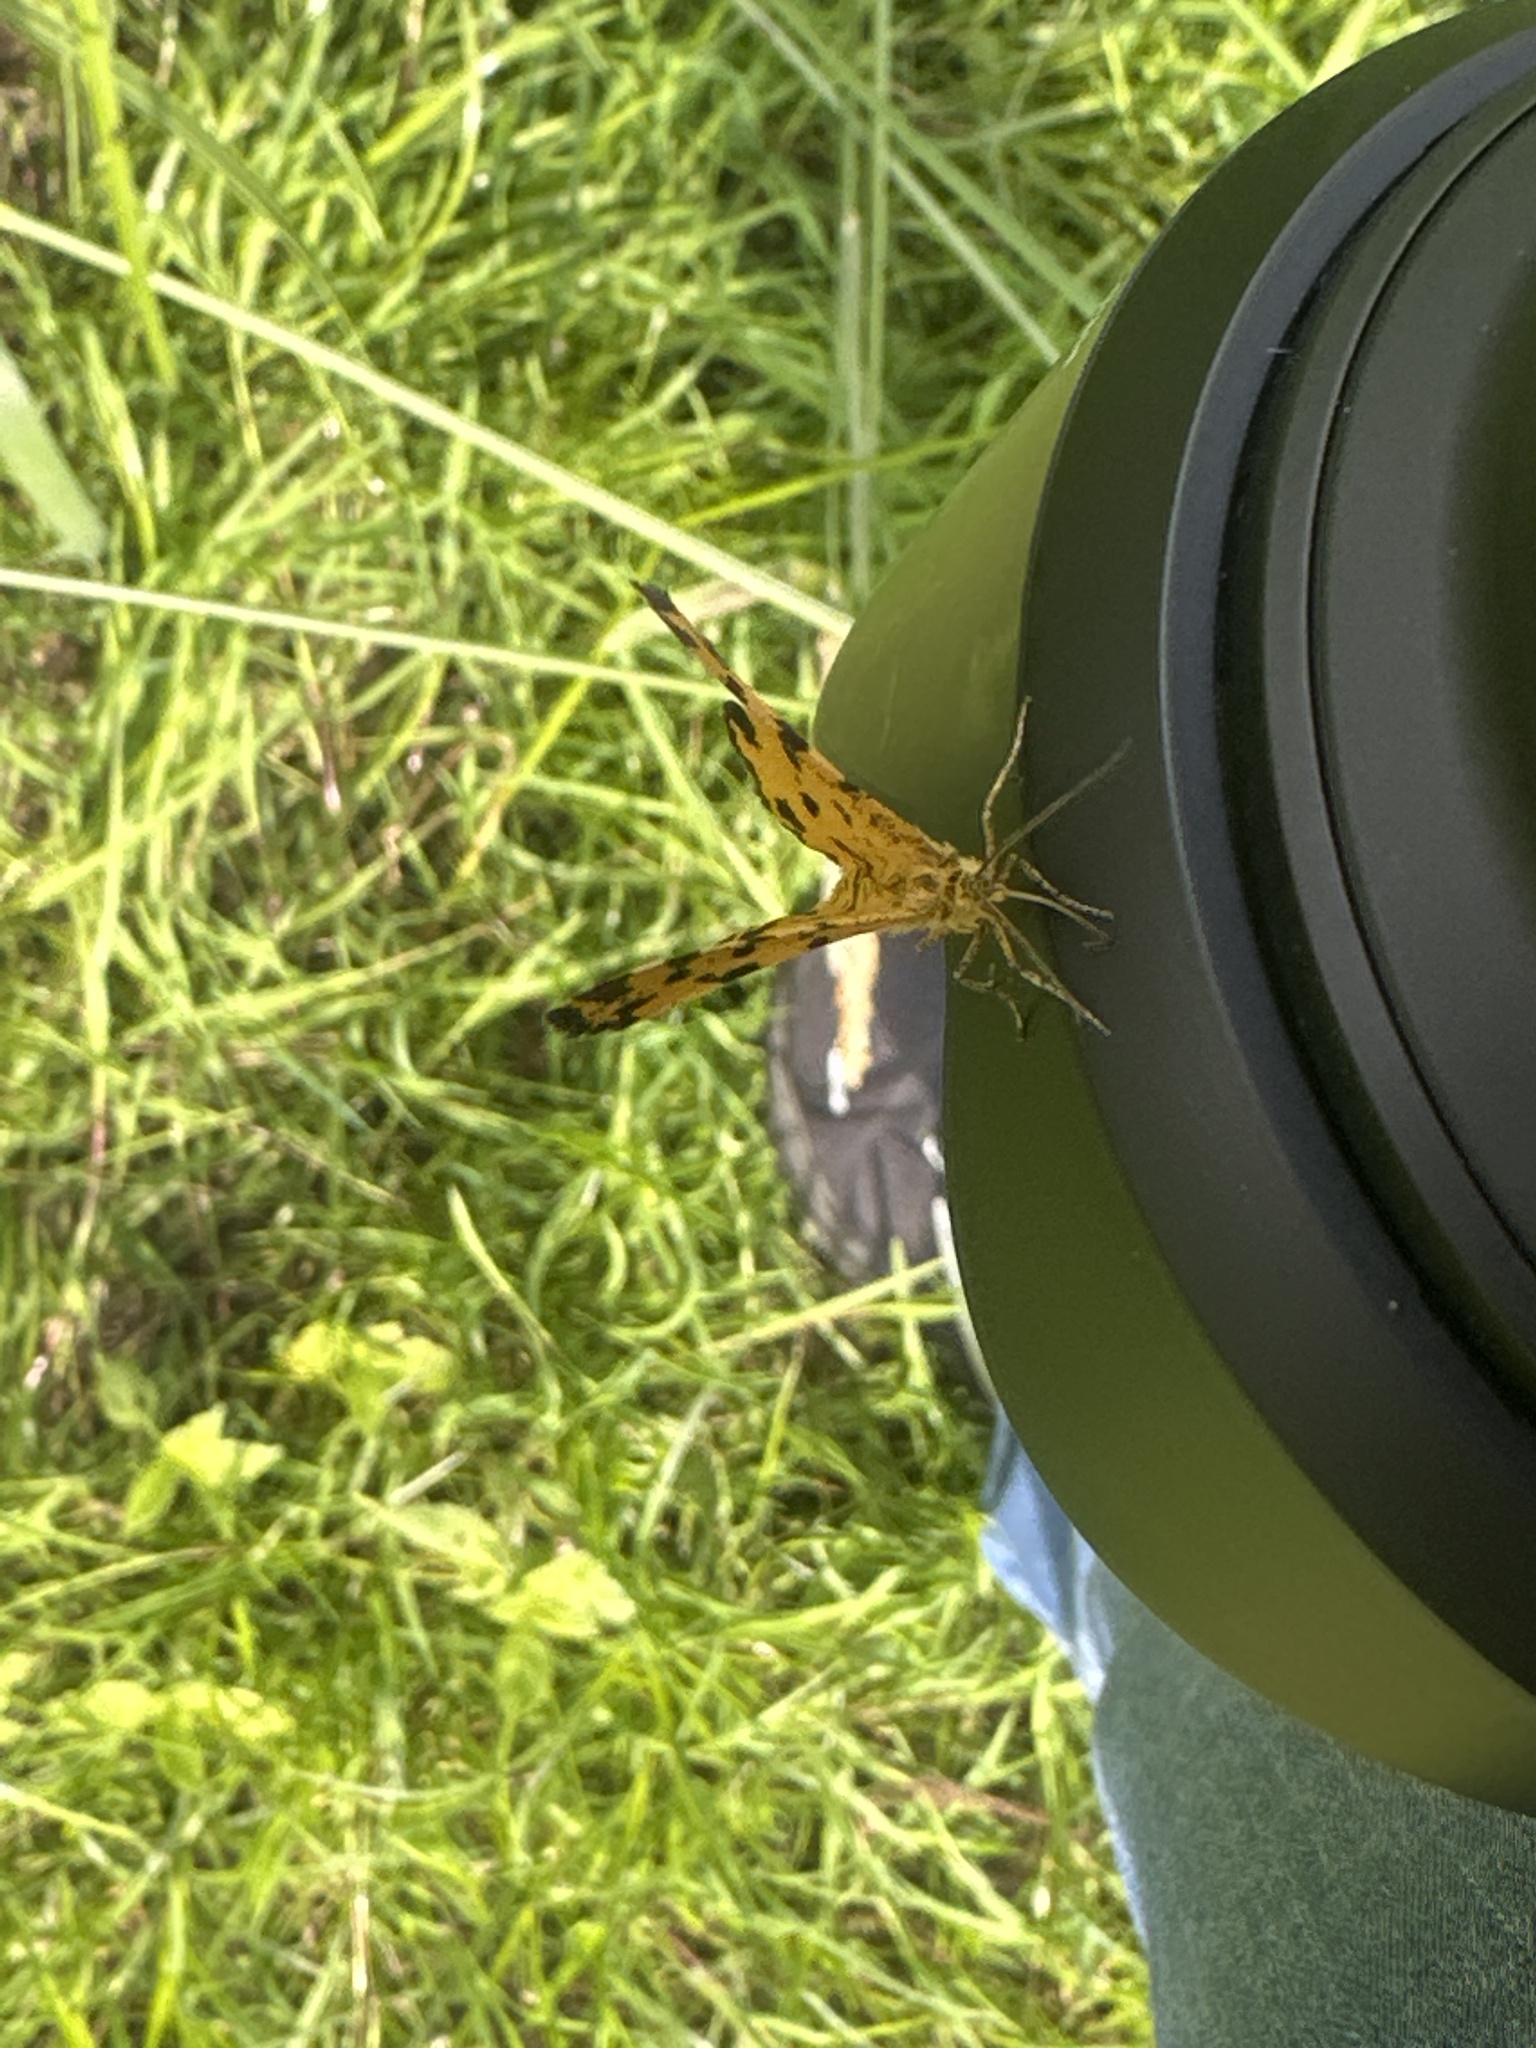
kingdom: Animalia
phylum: Arthropoda
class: Insecta
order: Lepidoptera
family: Geometridae
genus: Pseudopanthera
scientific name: Pseudopanthera macularia
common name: Speckled yellow
